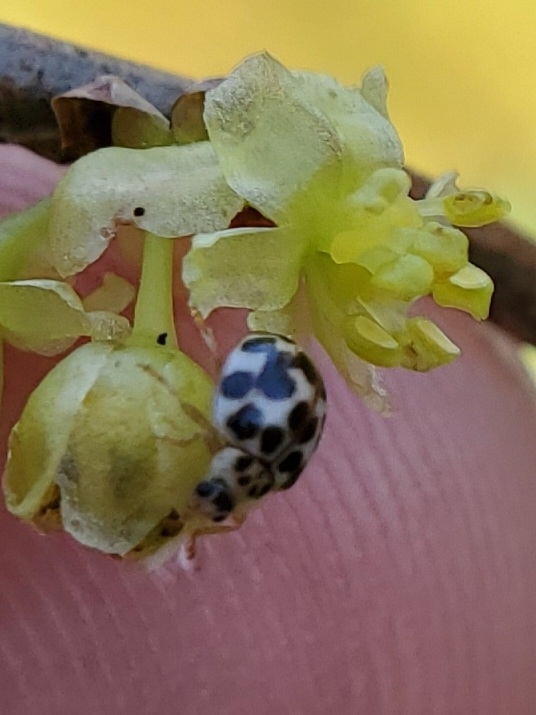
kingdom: Animalia
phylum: Arthropoda
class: Insecta
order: Coleoptera
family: Coccinellidae
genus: Psyllobora
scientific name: Psyllobora vigintimaculata
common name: Ladybird beetle
